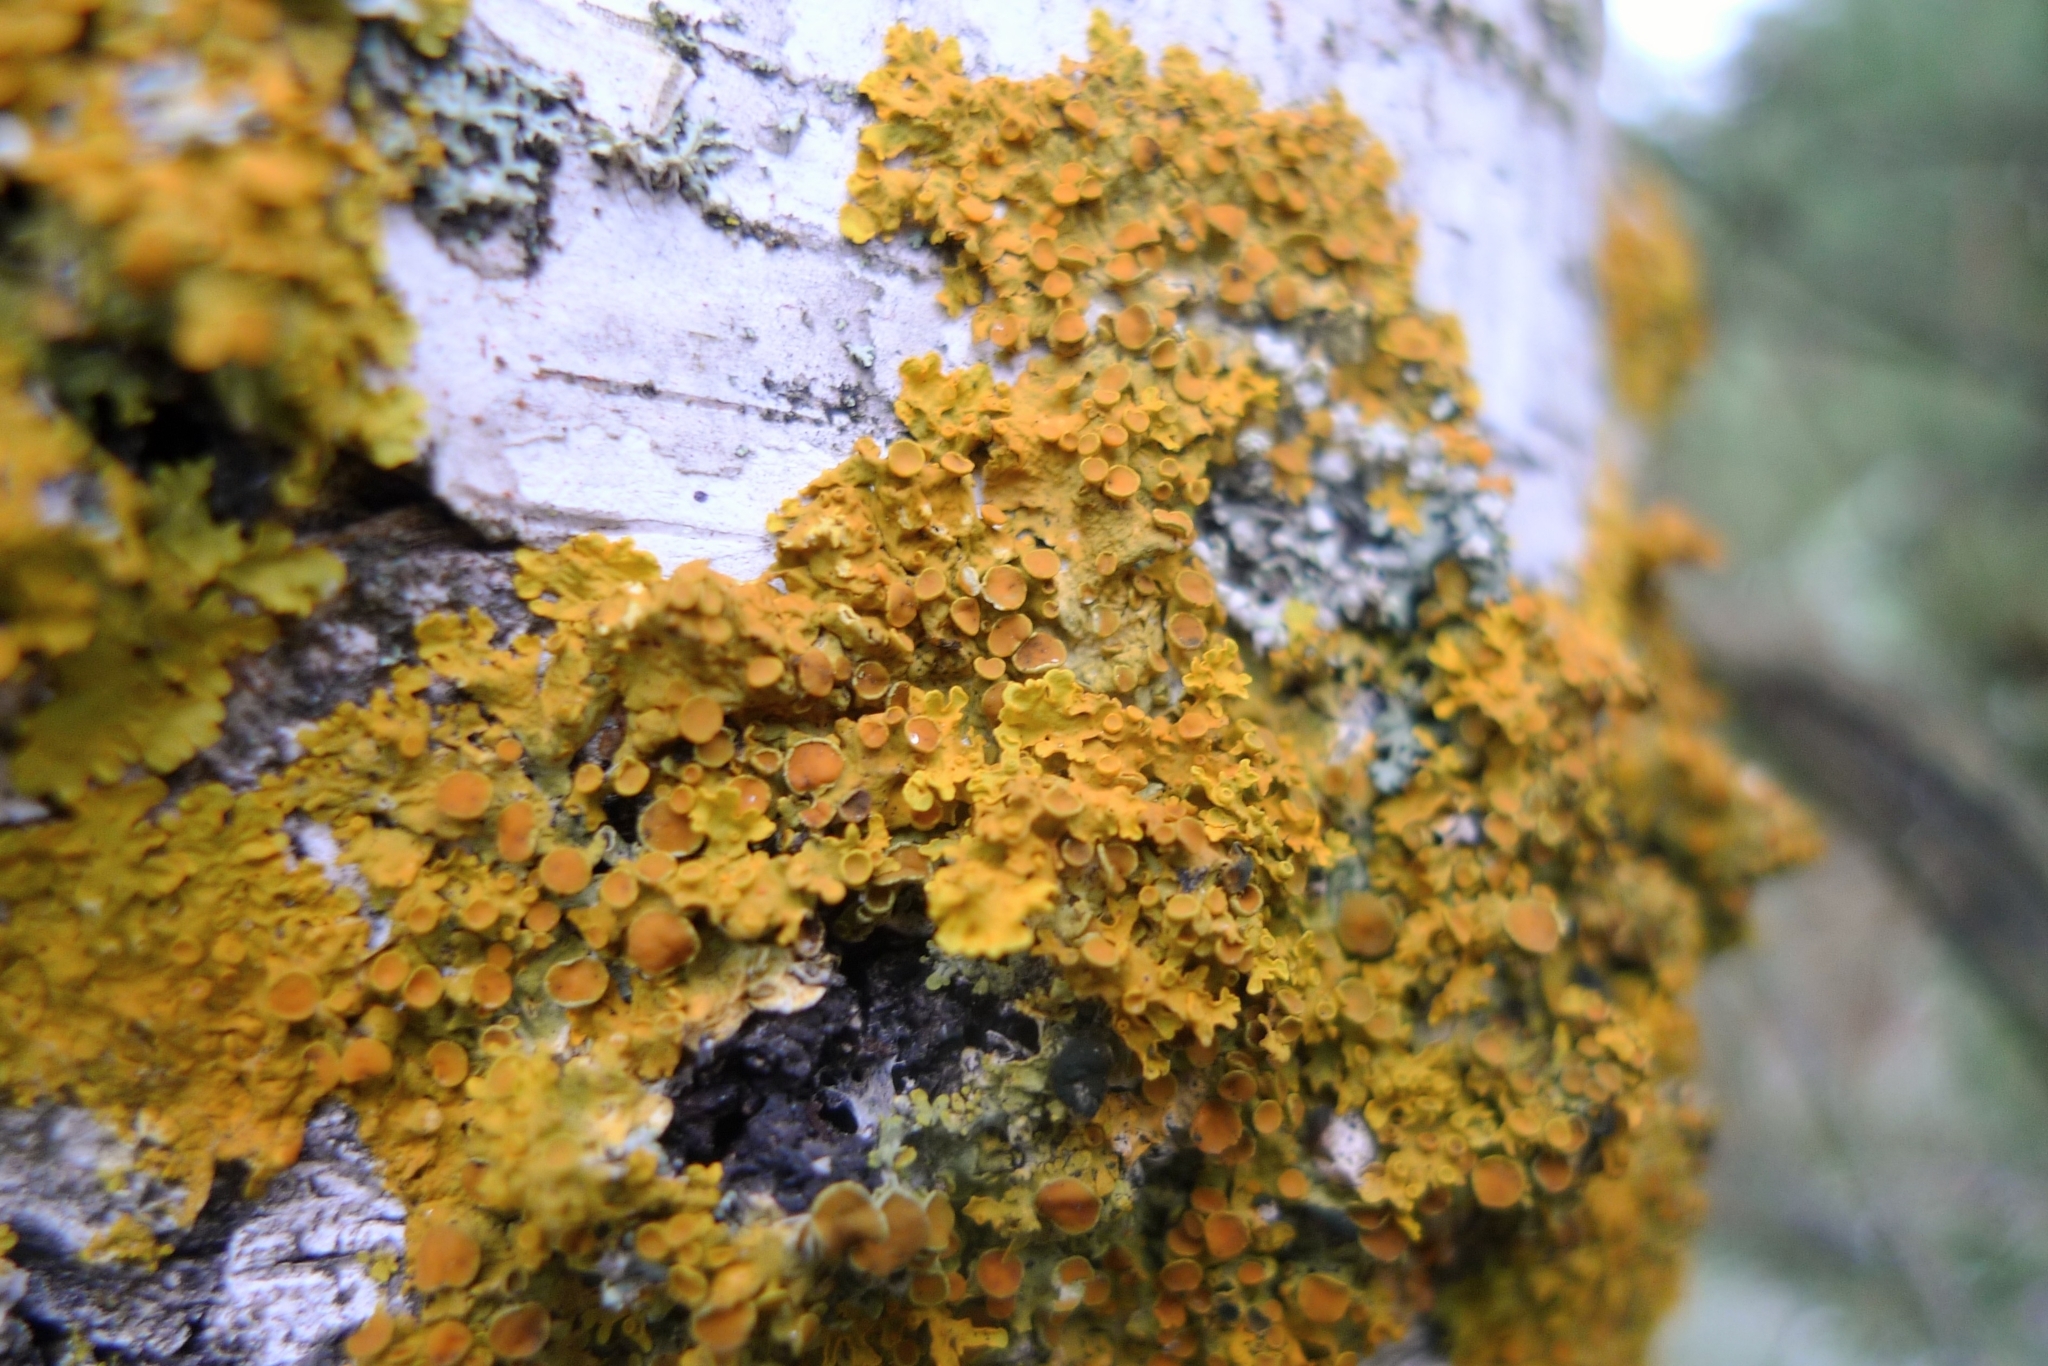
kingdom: Fungi
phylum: Ascomycota
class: Lecanoromycetes
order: Teloschistales
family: Teloschistaceae
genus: Xanthoria
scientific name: Xanthoria parietina
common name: Common orange lichen
